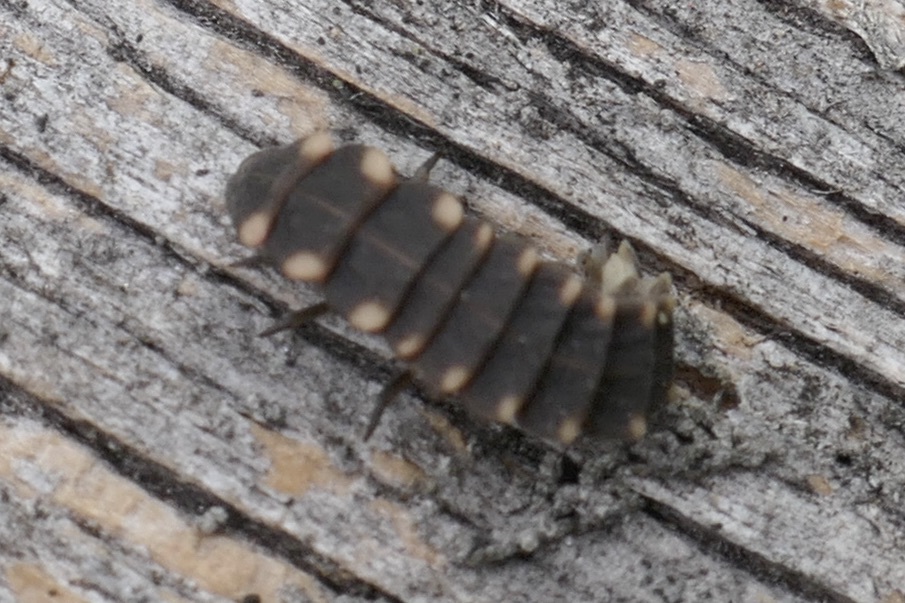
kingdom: Animalia
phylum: Arthropoda
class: Insecta
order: Coleoptera
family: Lampyridae
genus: Lampyris
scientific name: Lampyris noctiluca
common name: Glow-worm
